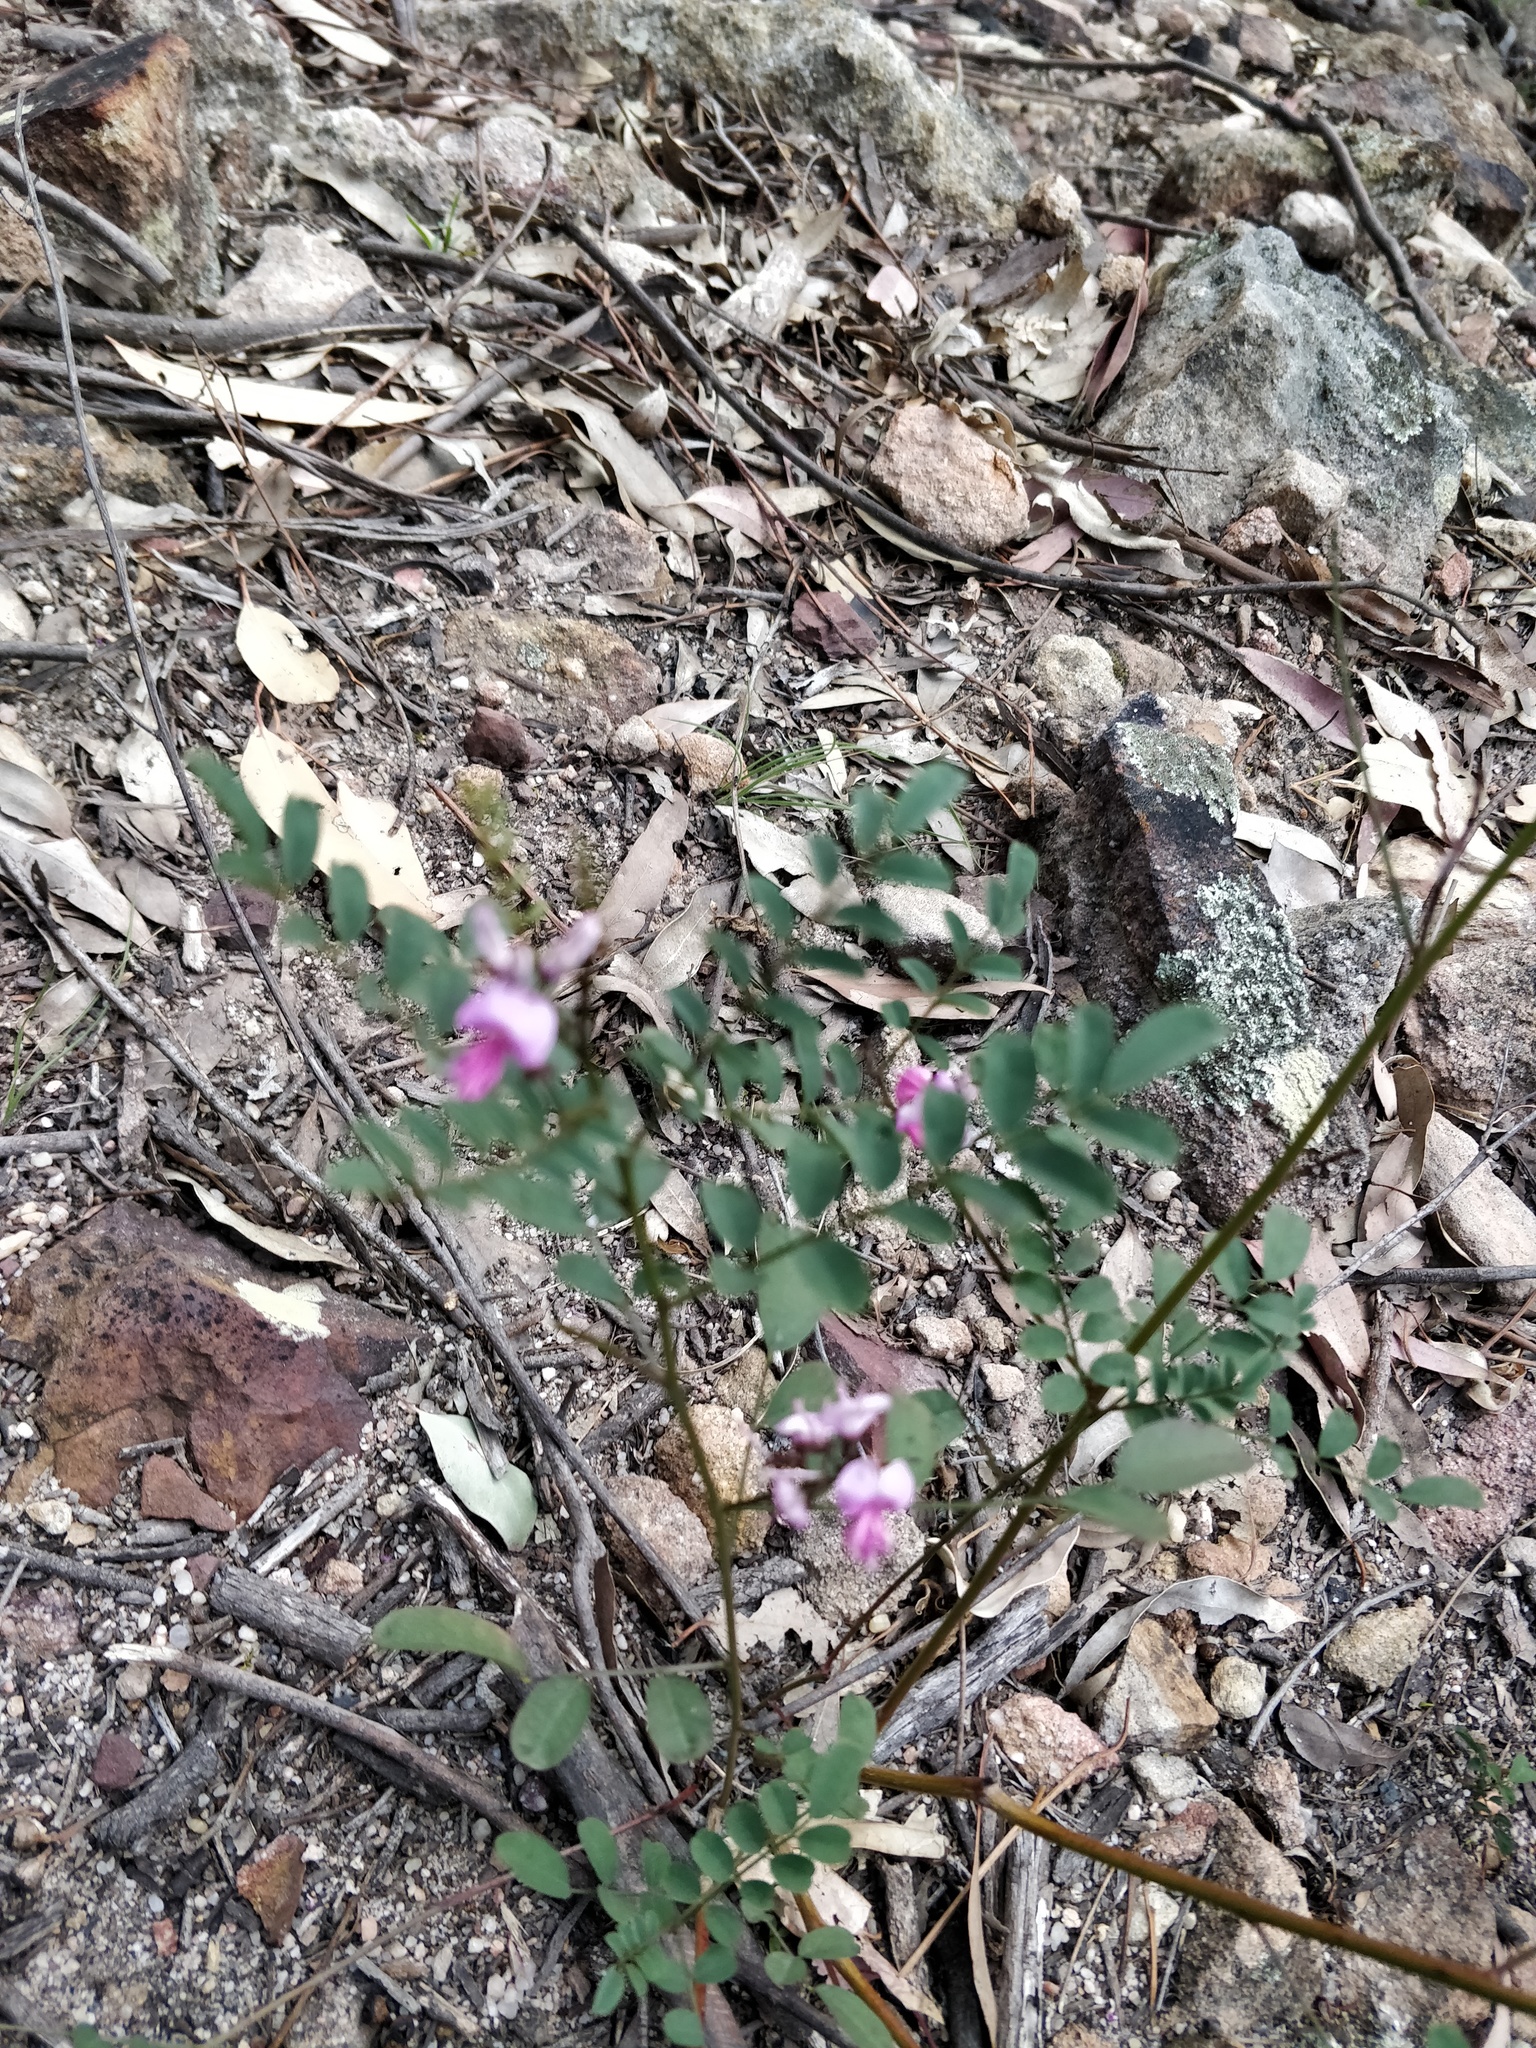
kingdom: Plantae
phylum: Tracheophyta
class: Magnoliopsida
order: Fabales
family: Fabaceae
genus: Indigofera
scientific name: Indigofera australis
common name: Australian indigo
